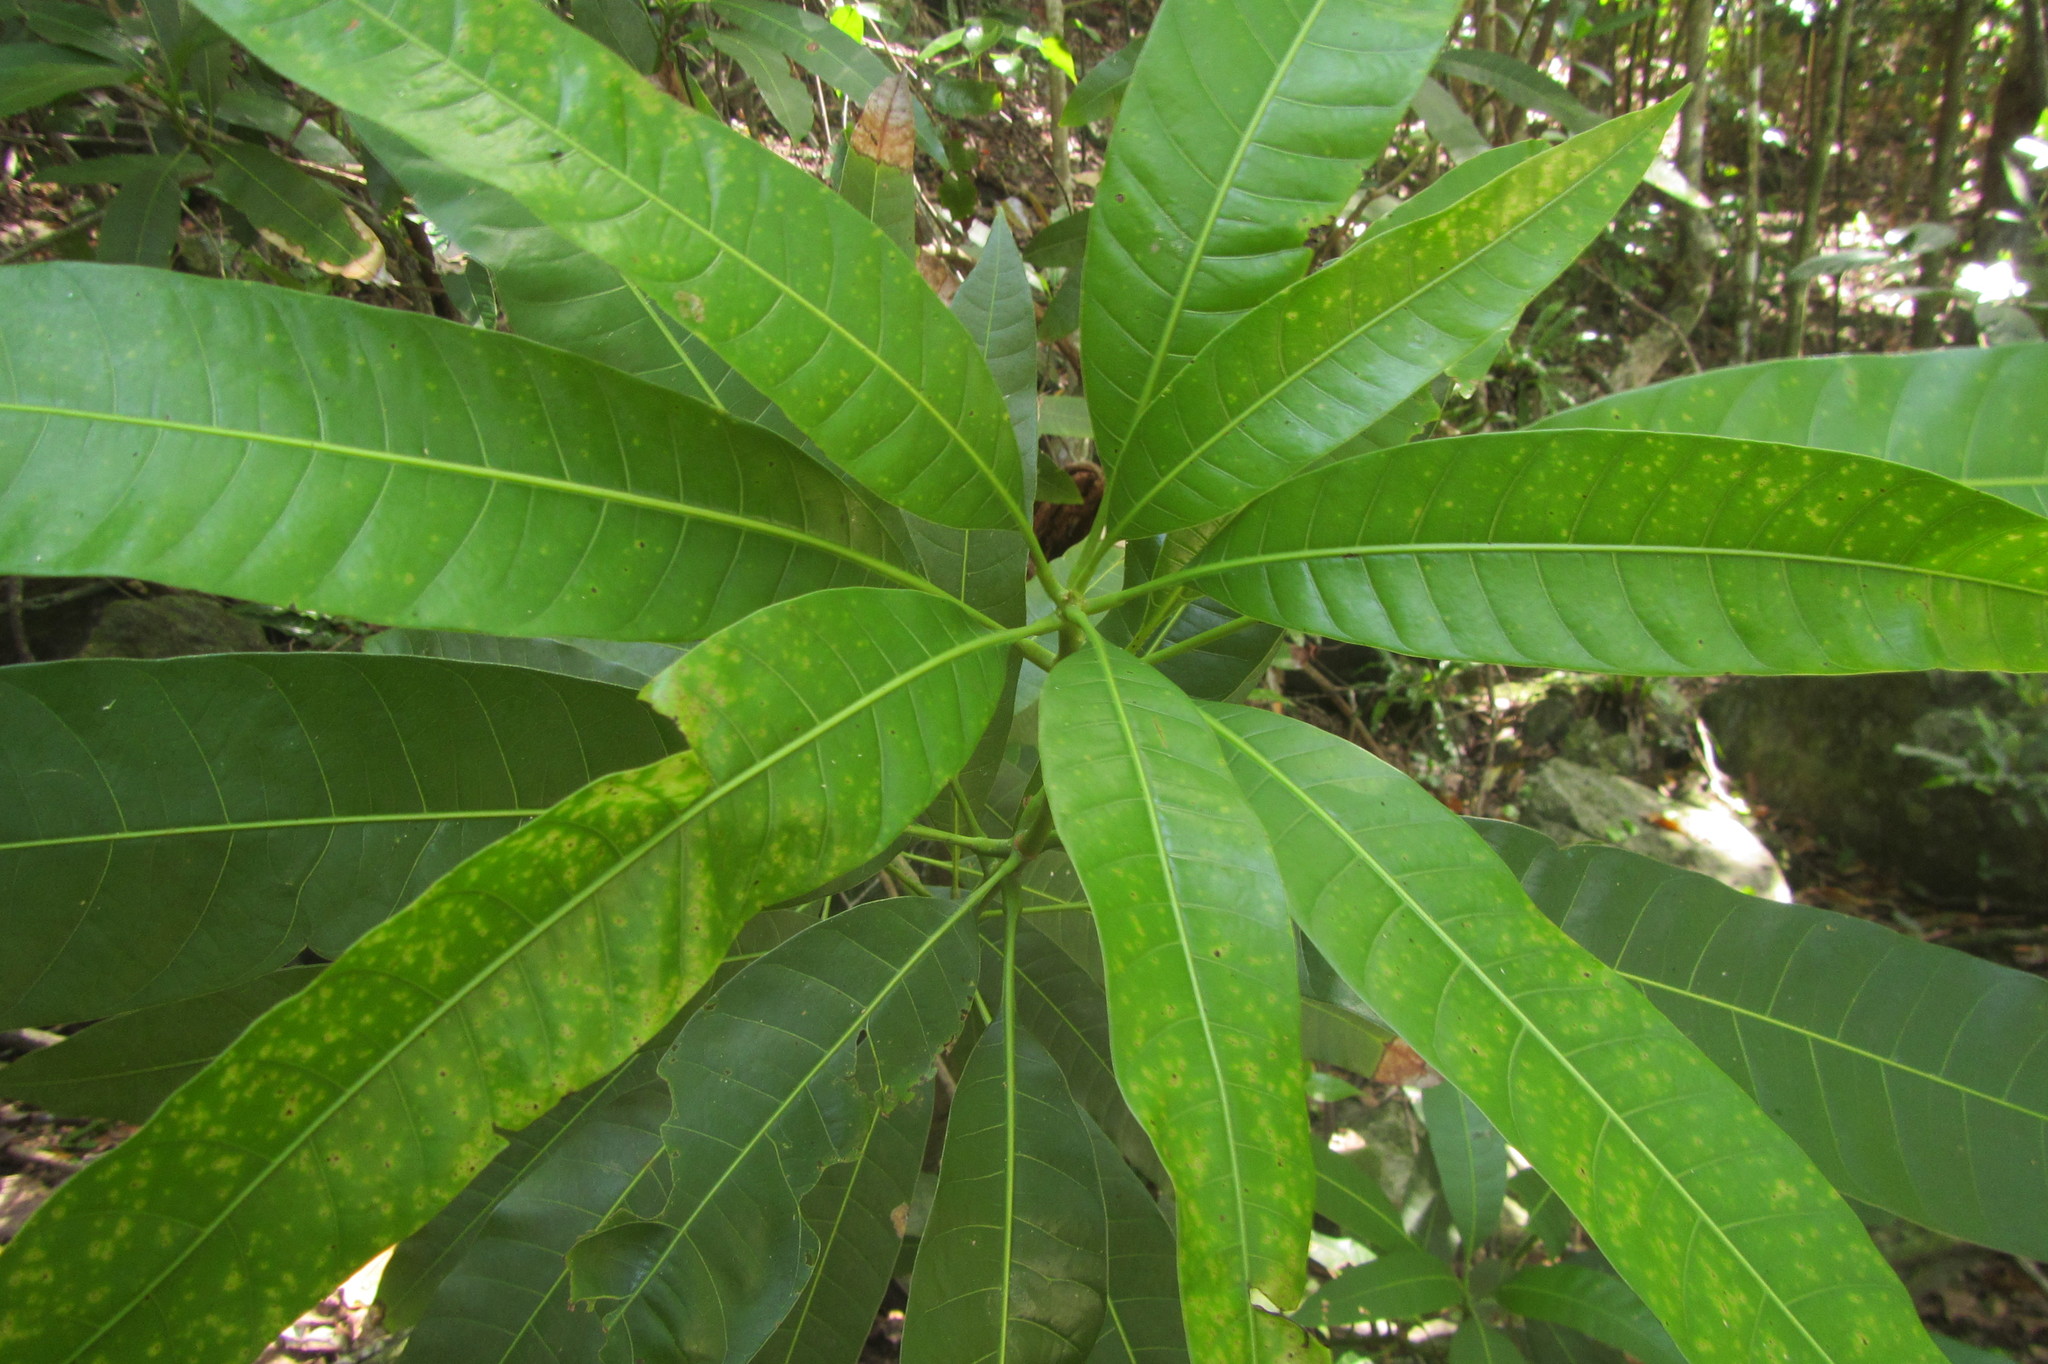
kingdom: Plantae
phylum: Tracheophyta
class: Magnoliopsida
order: Sapindales
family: Anacardiaceae
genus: Mangifera
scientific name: Mangifera indica
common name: Mango
